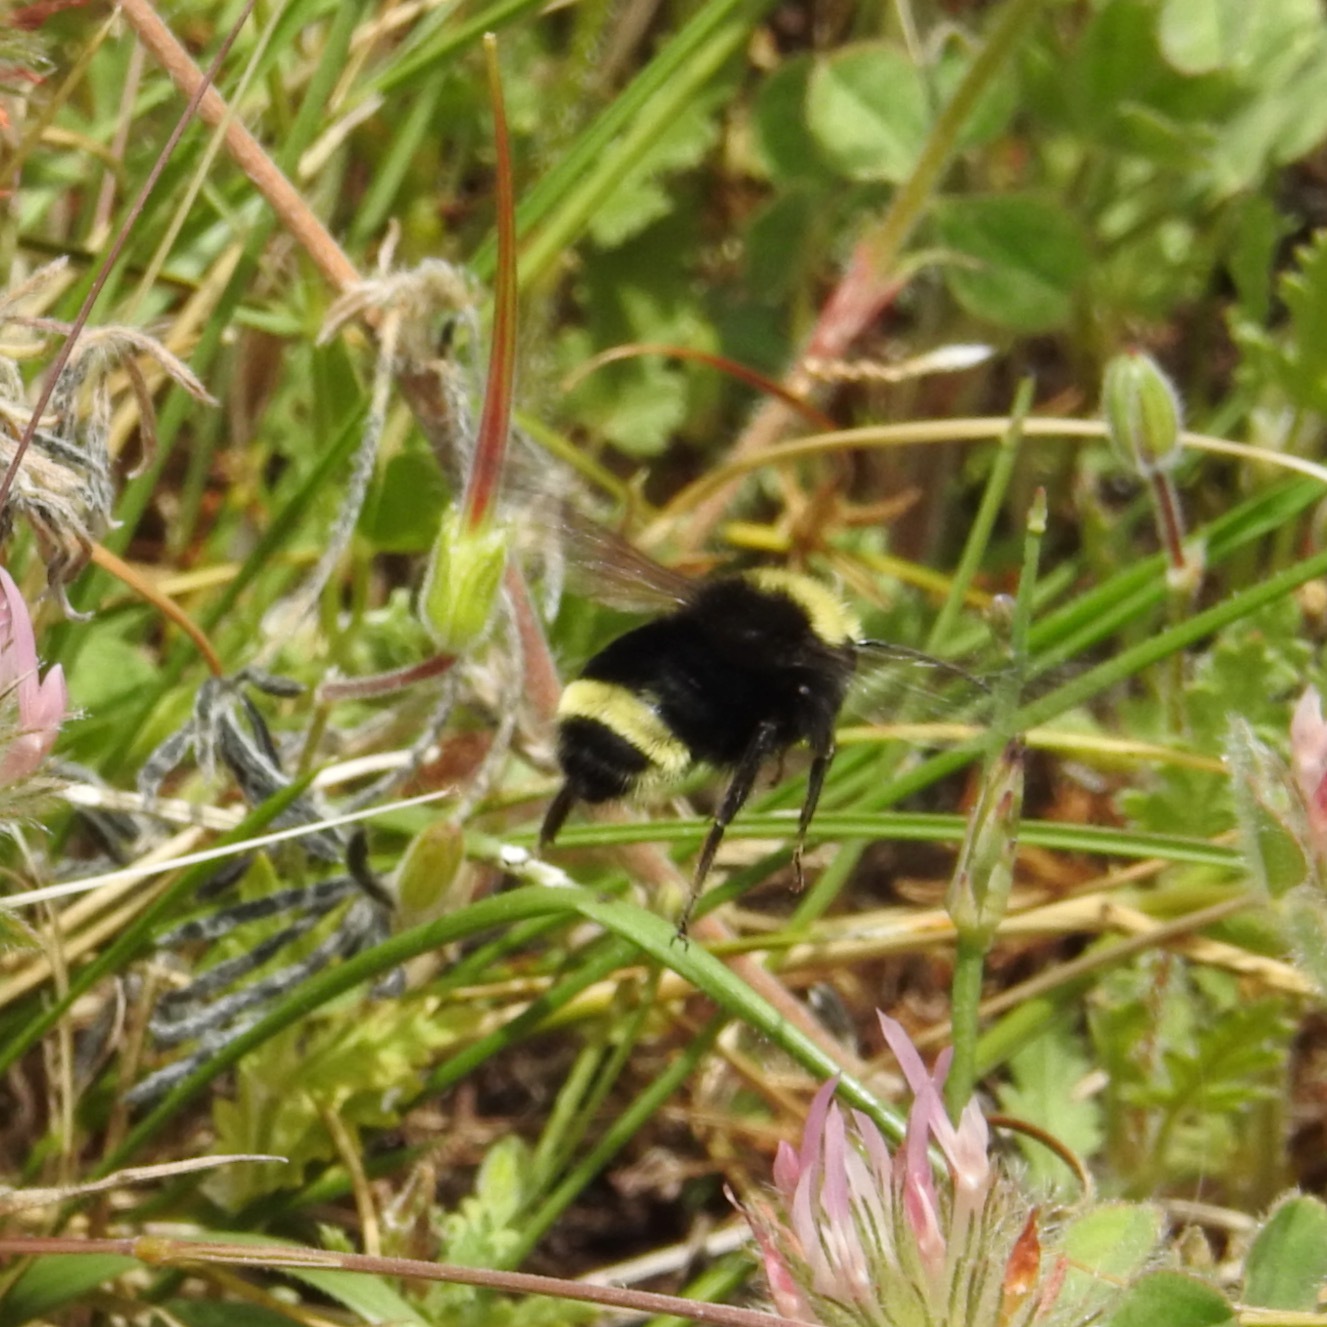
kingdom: Plantae
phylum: Tracheophyta
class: Magnoliopsida
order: Fabales
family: Fabaceae
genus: Trifolium
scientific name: Trifolium hirtum
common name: Rose clover
